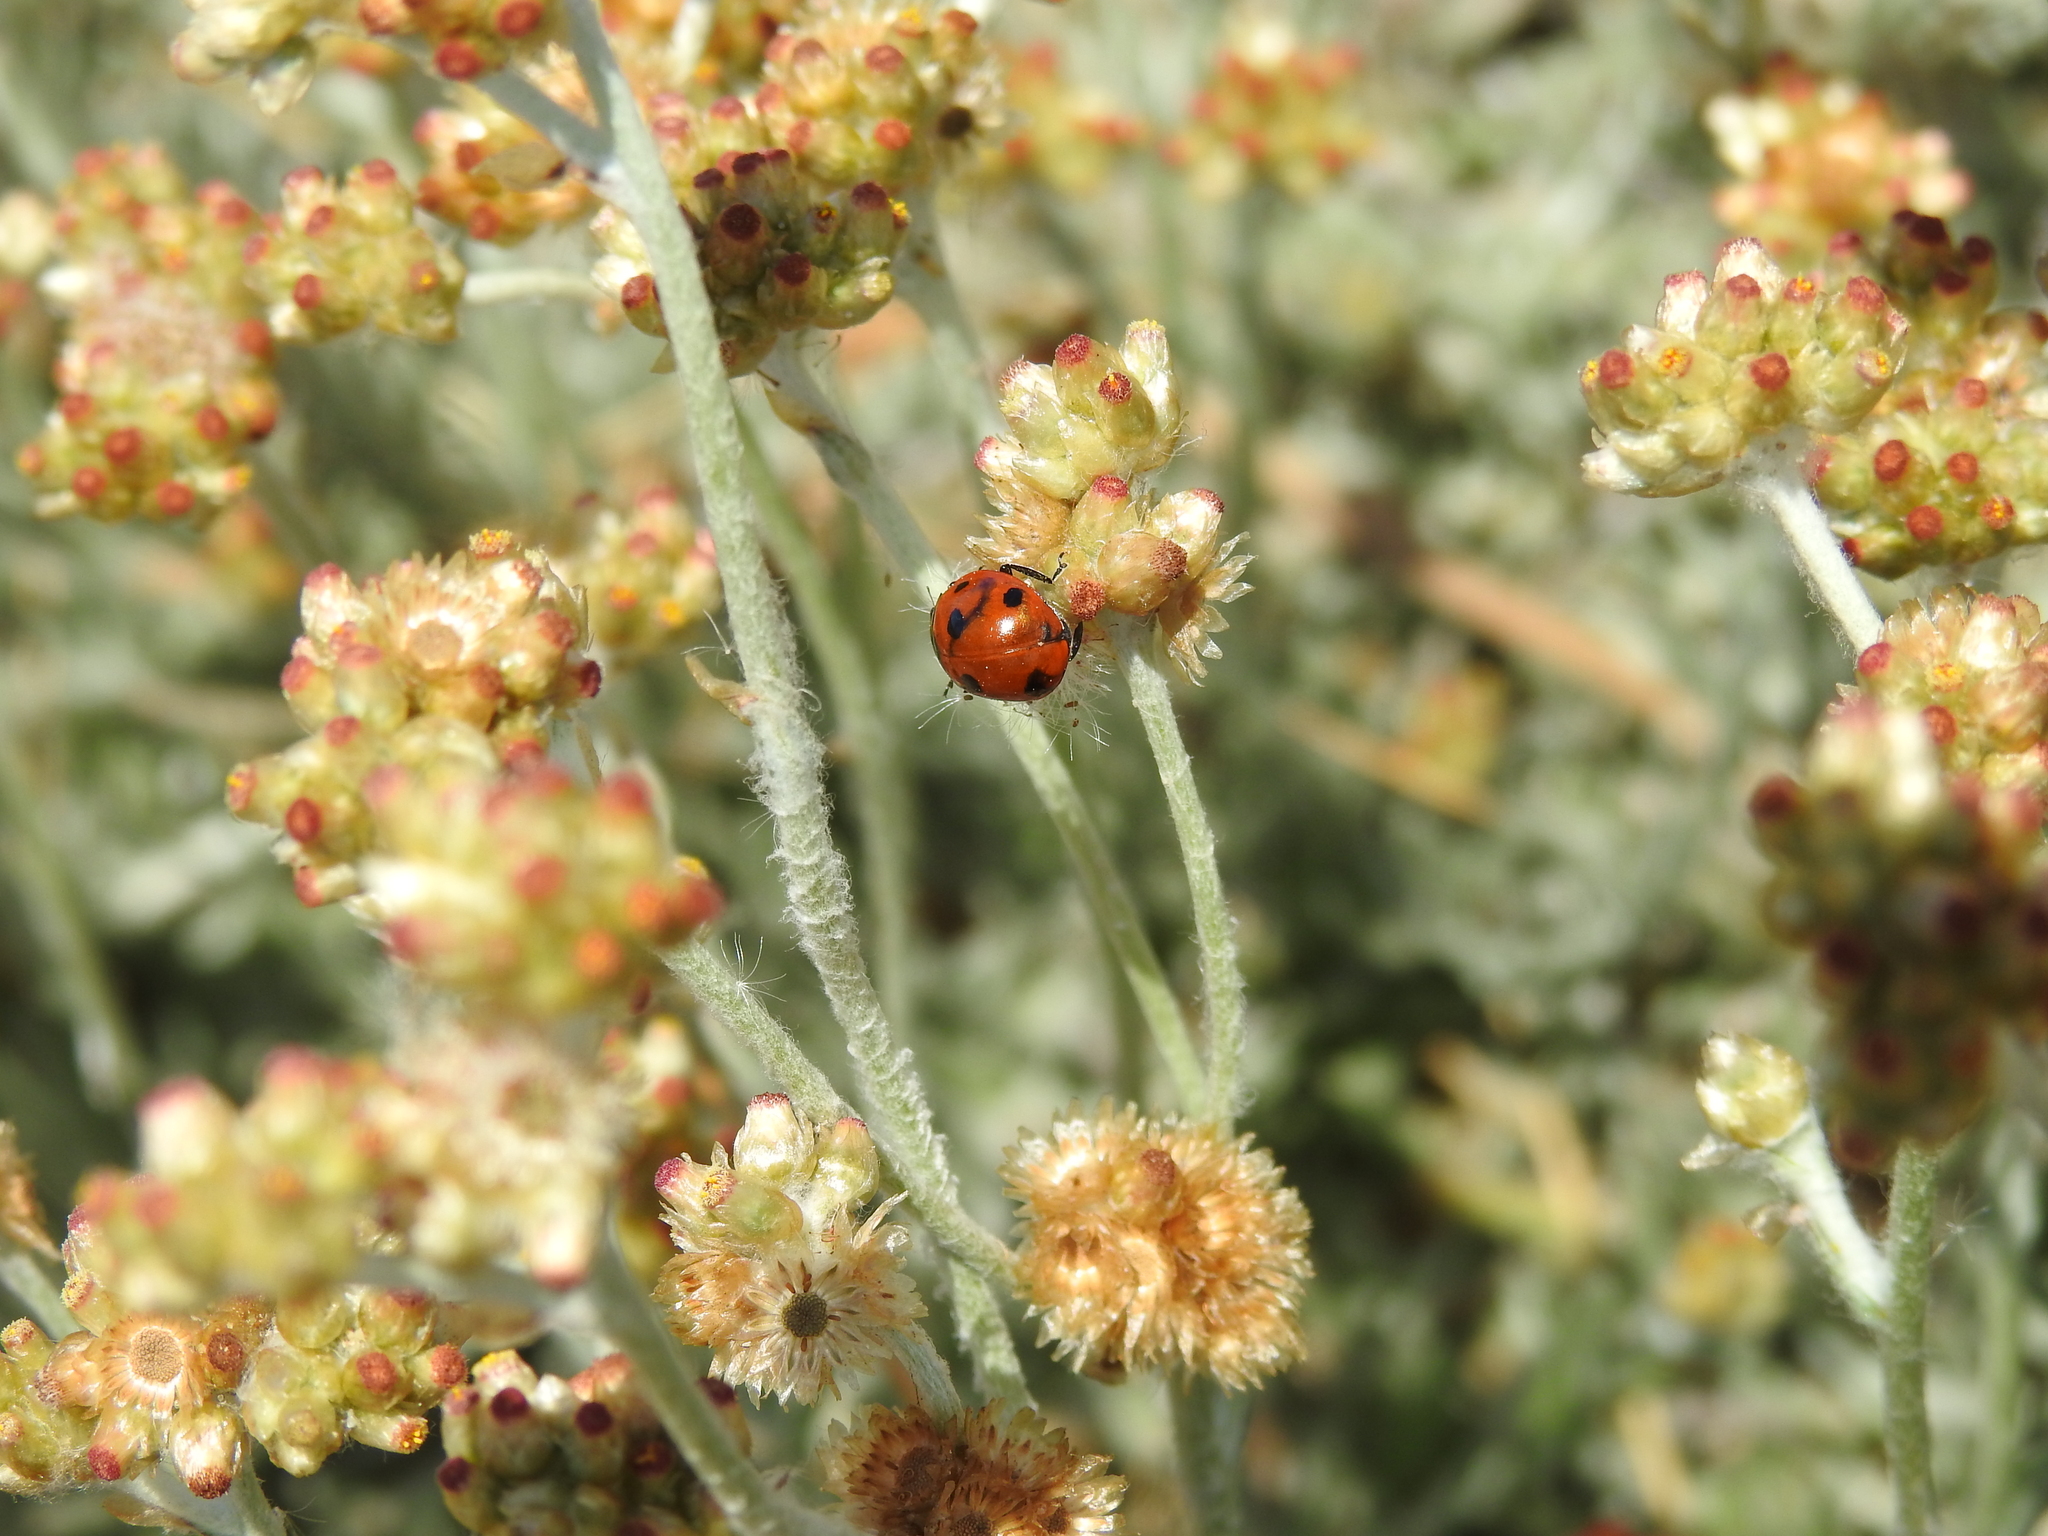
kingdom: Animalia
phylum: Arthropoda
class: Insecta
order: Coleoptera
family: Coccinellidae
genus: Coccinella
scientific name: Coccinella septempunctata
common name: Sevenspotted lady beetle
